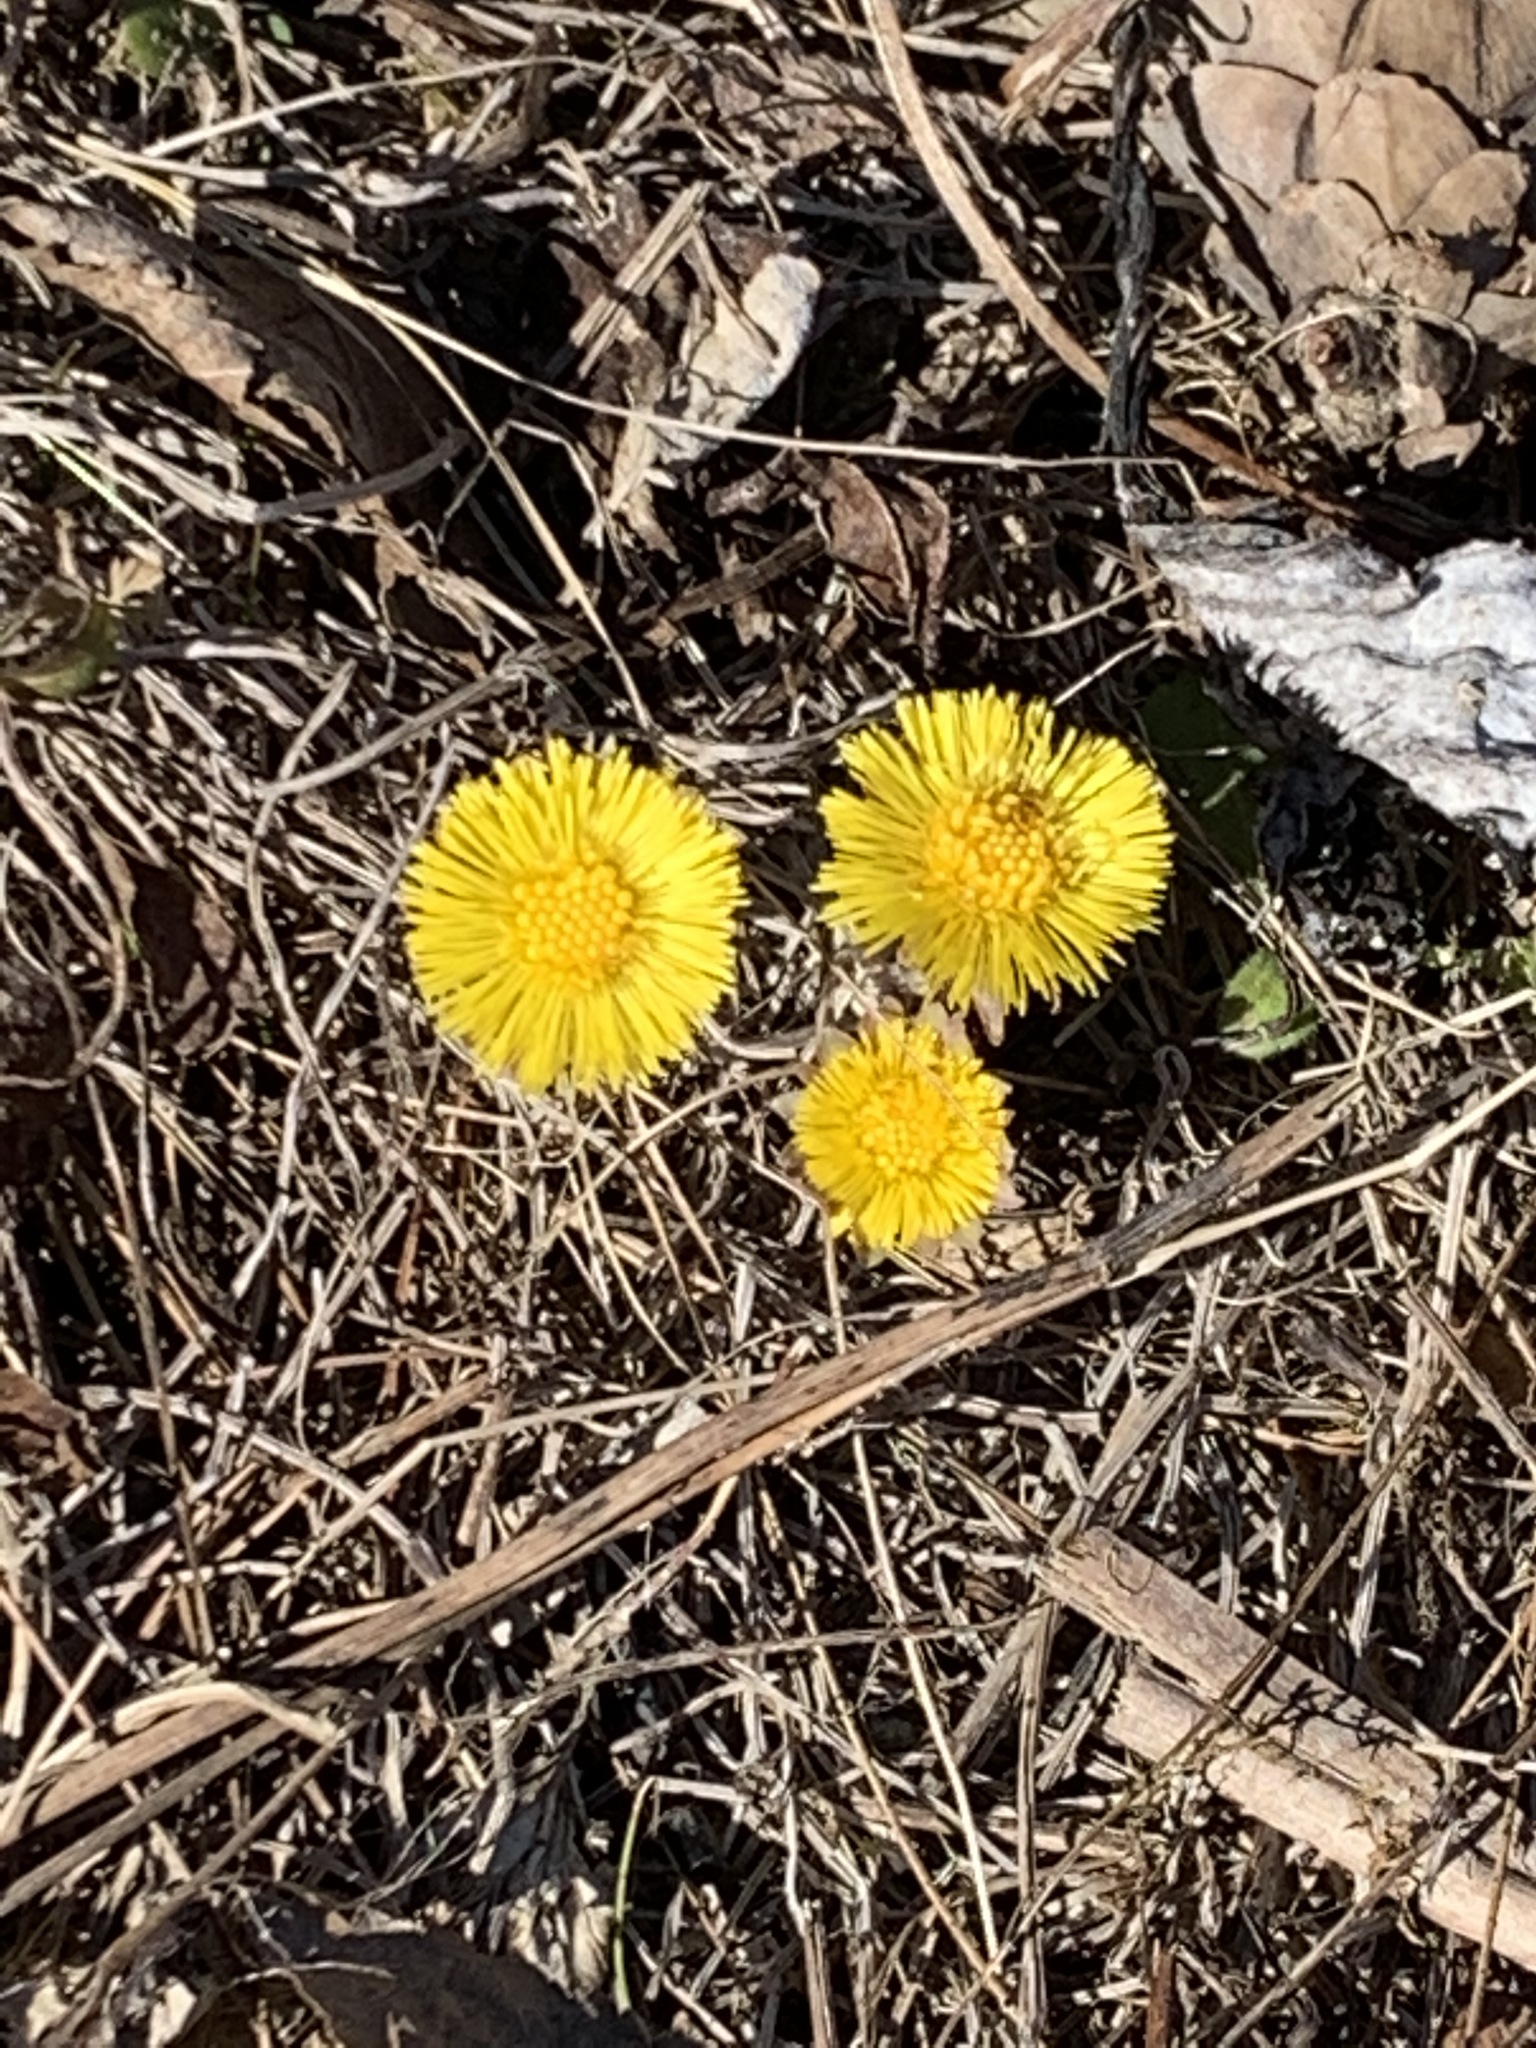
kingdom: Plantae
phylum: Tracheophyta
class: Magnoliopsida
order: Asterales
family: Asteraceae
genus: Tussilago
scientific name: Tussilago farfara
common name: Coltsfoot
